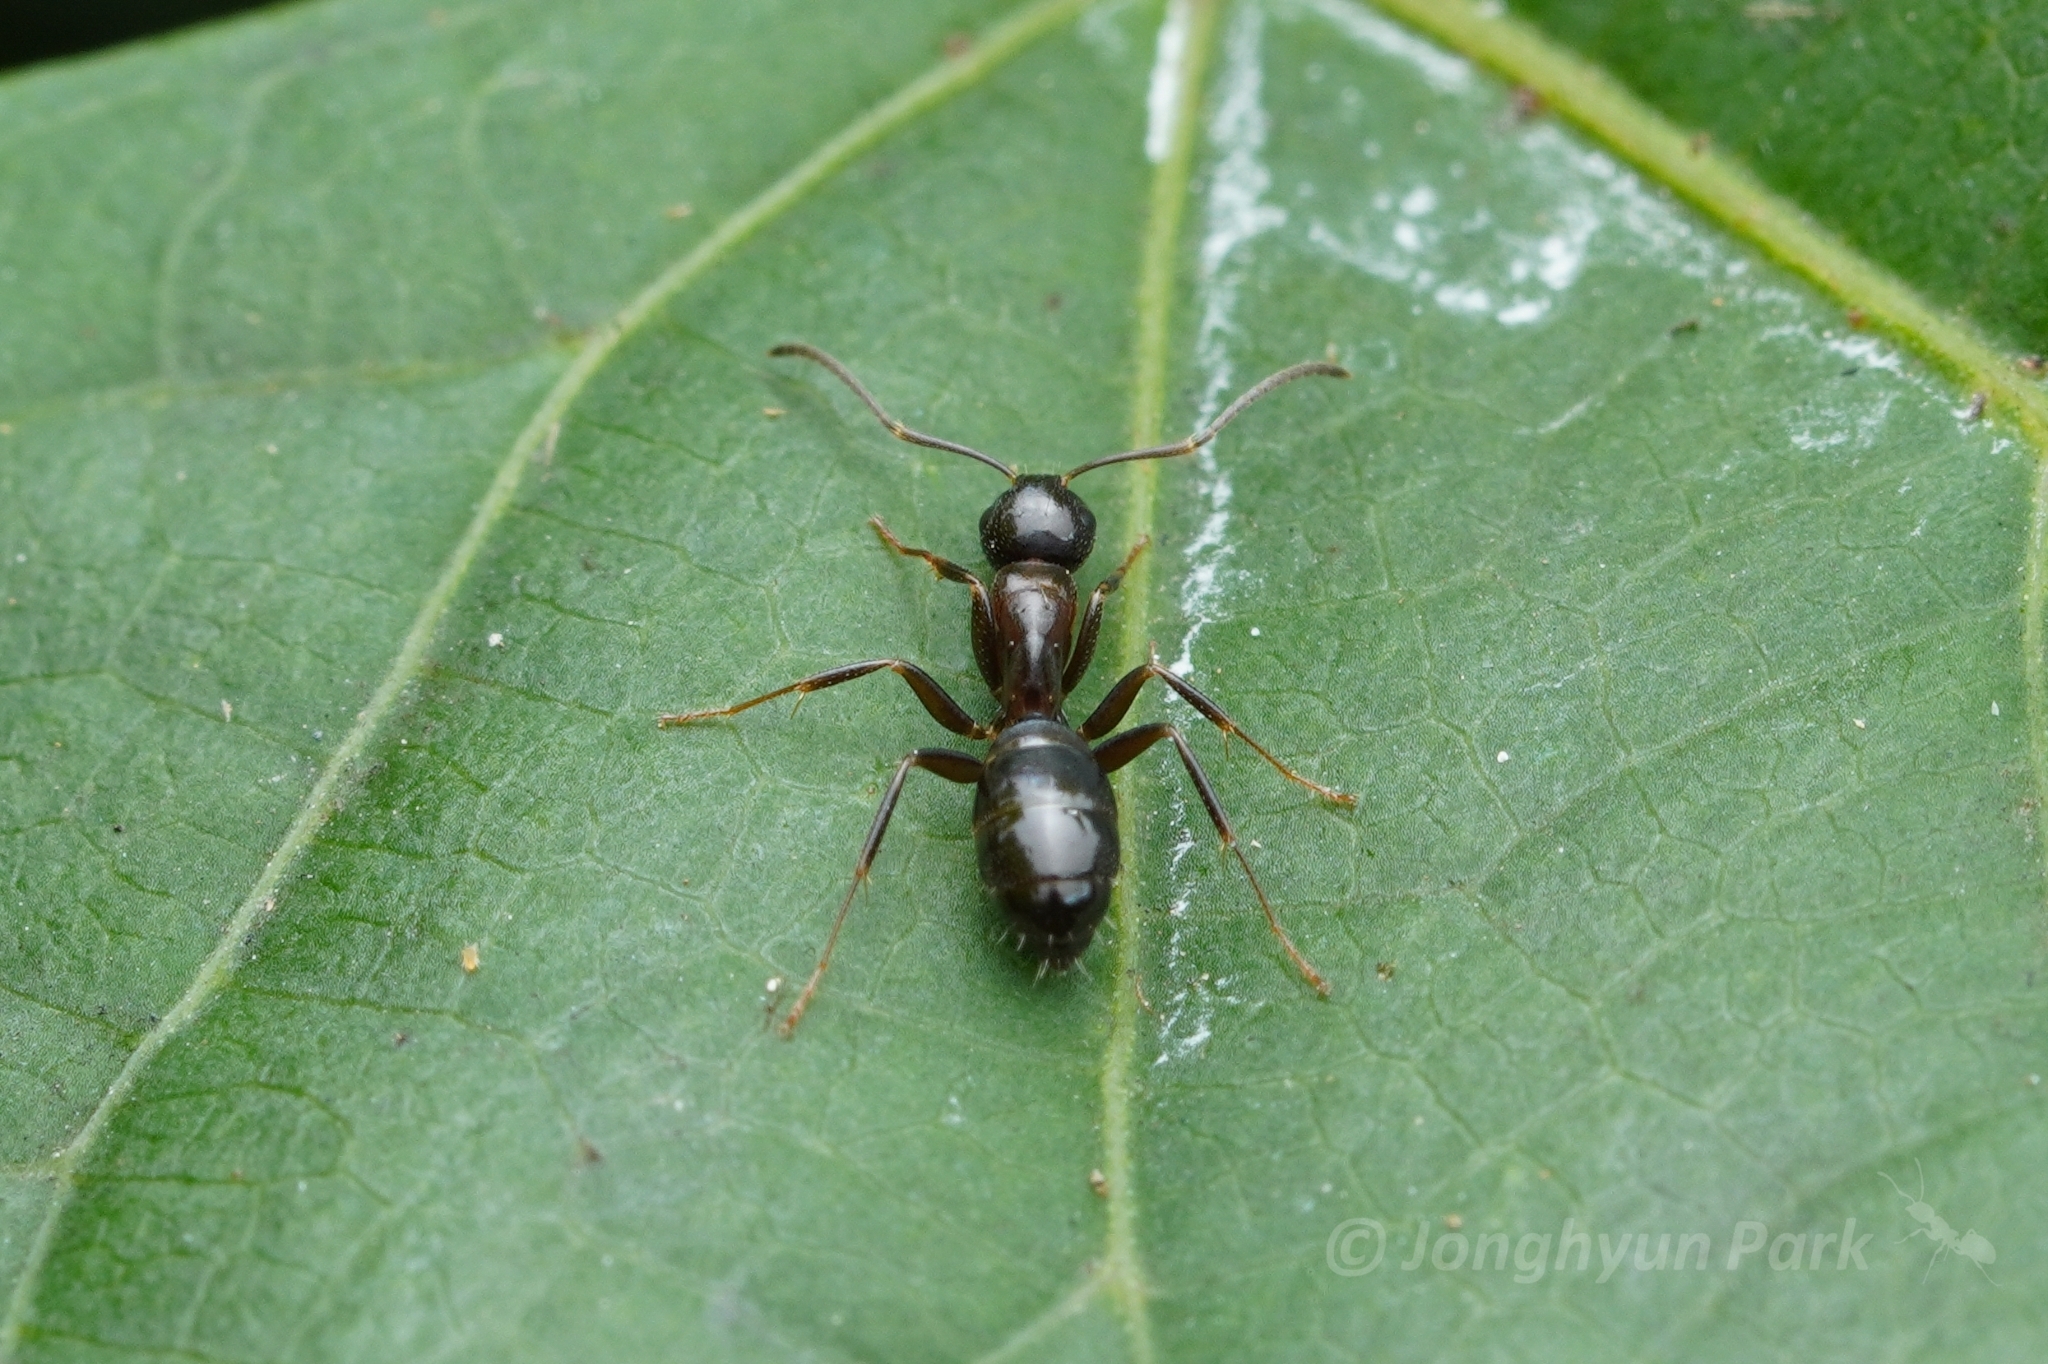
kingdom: Animalia
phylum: Arthropoda
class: Insecta
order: Hymenoptera
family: Formicidae
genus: Camponotus
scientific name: Camponotus nearcticus
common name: Smaller carpenter ant
